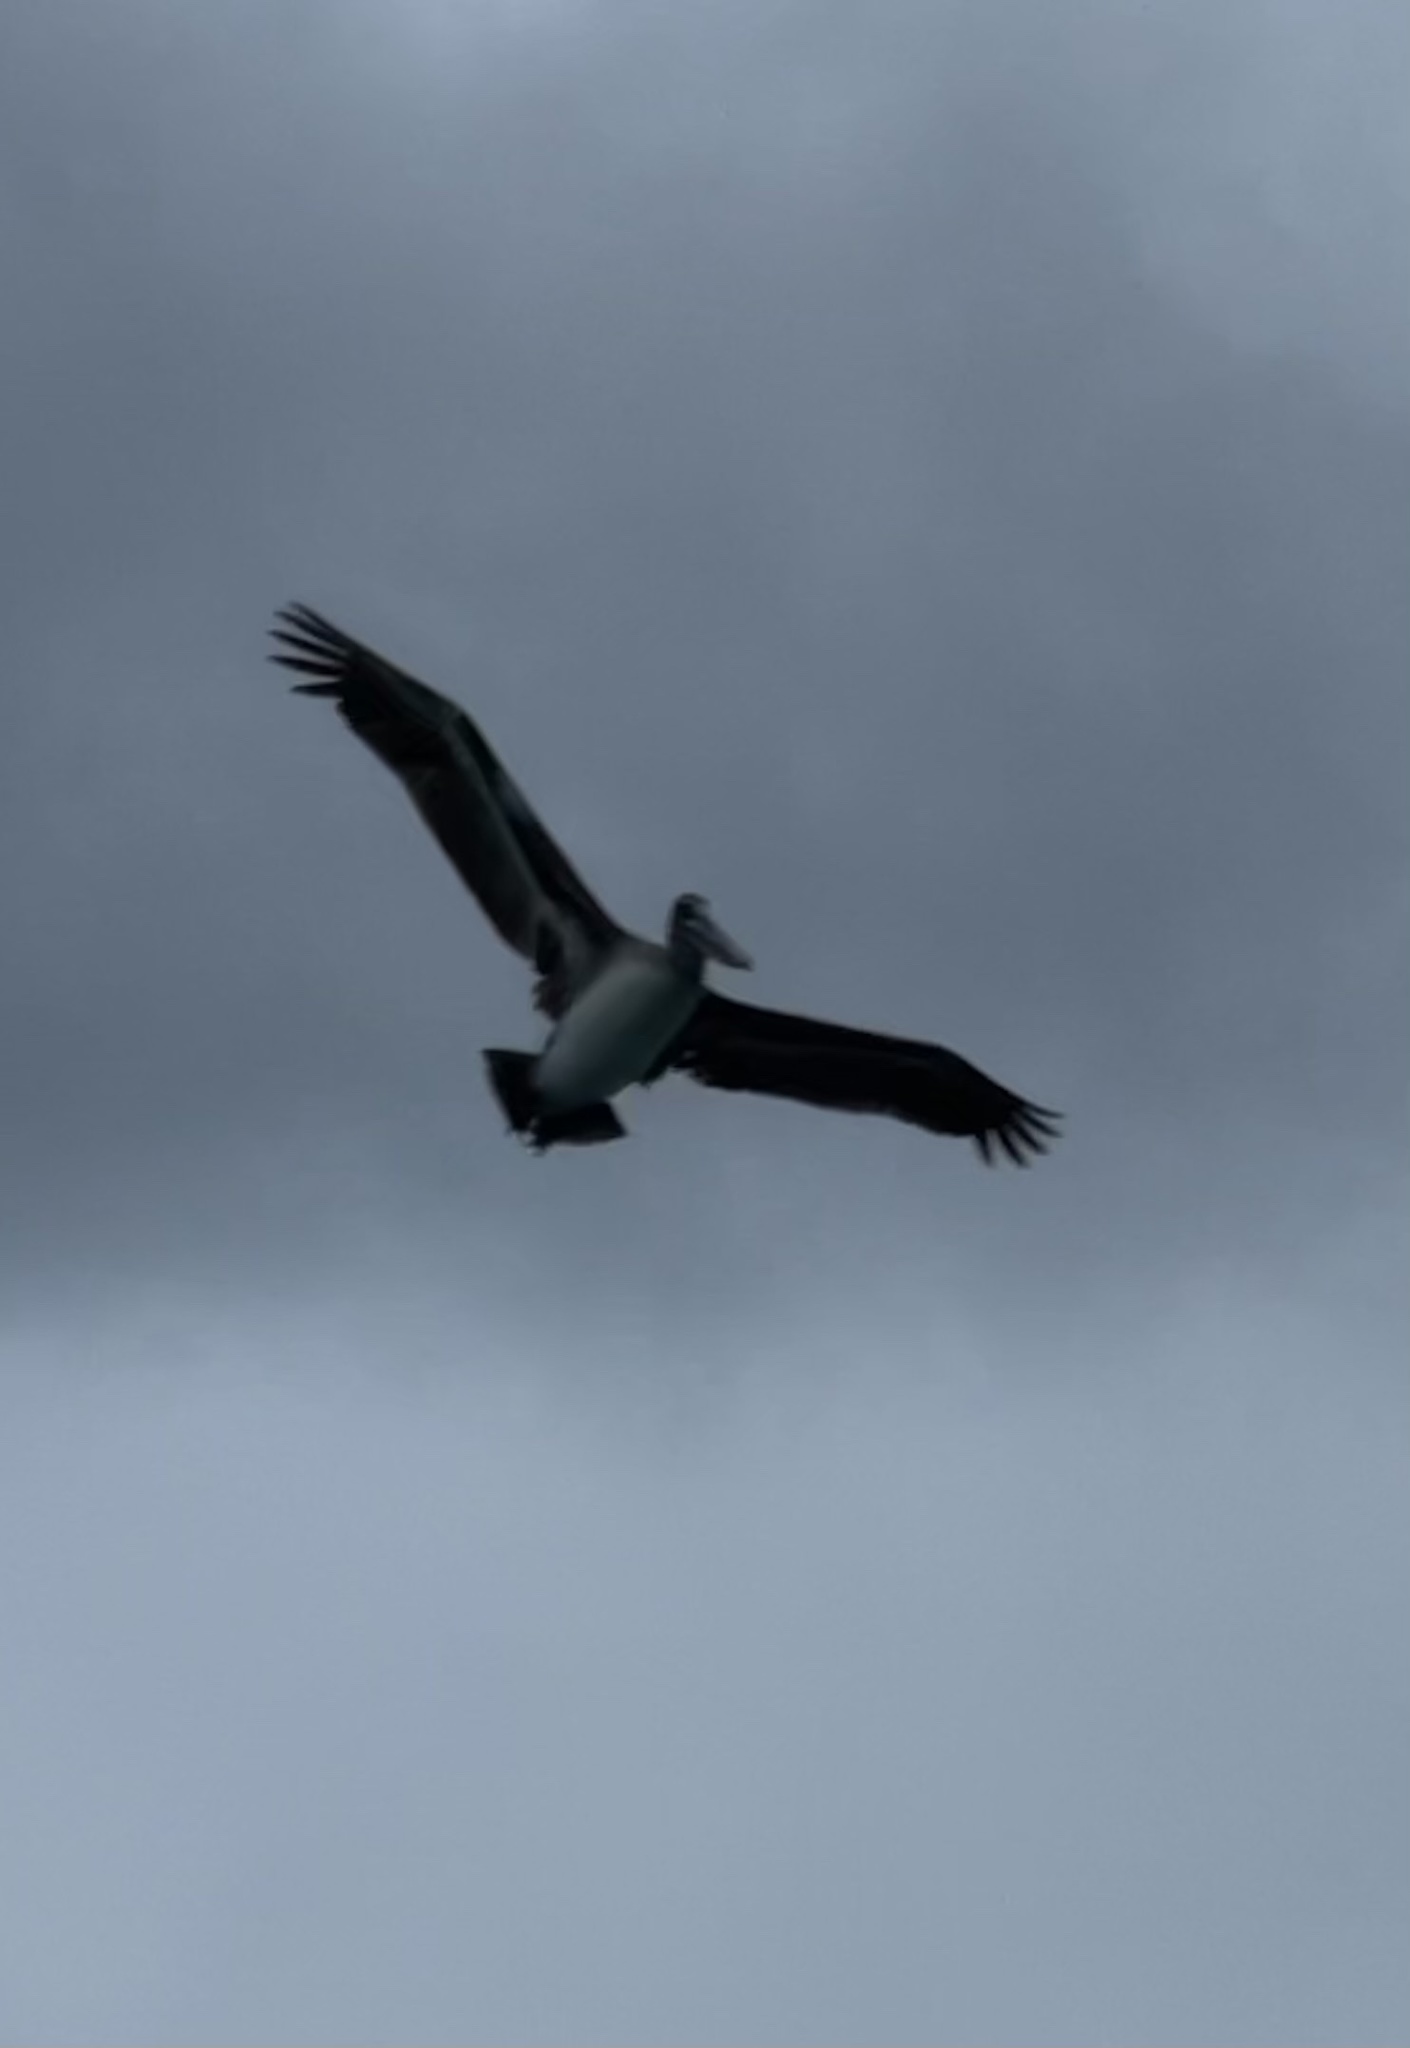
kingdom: Animalia
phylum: Chordata
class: Aves
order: Pelecaniformes
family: Pelecanidae
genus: Pelecanus
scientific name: Pelecanus occidentalis
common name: Brown pelican
